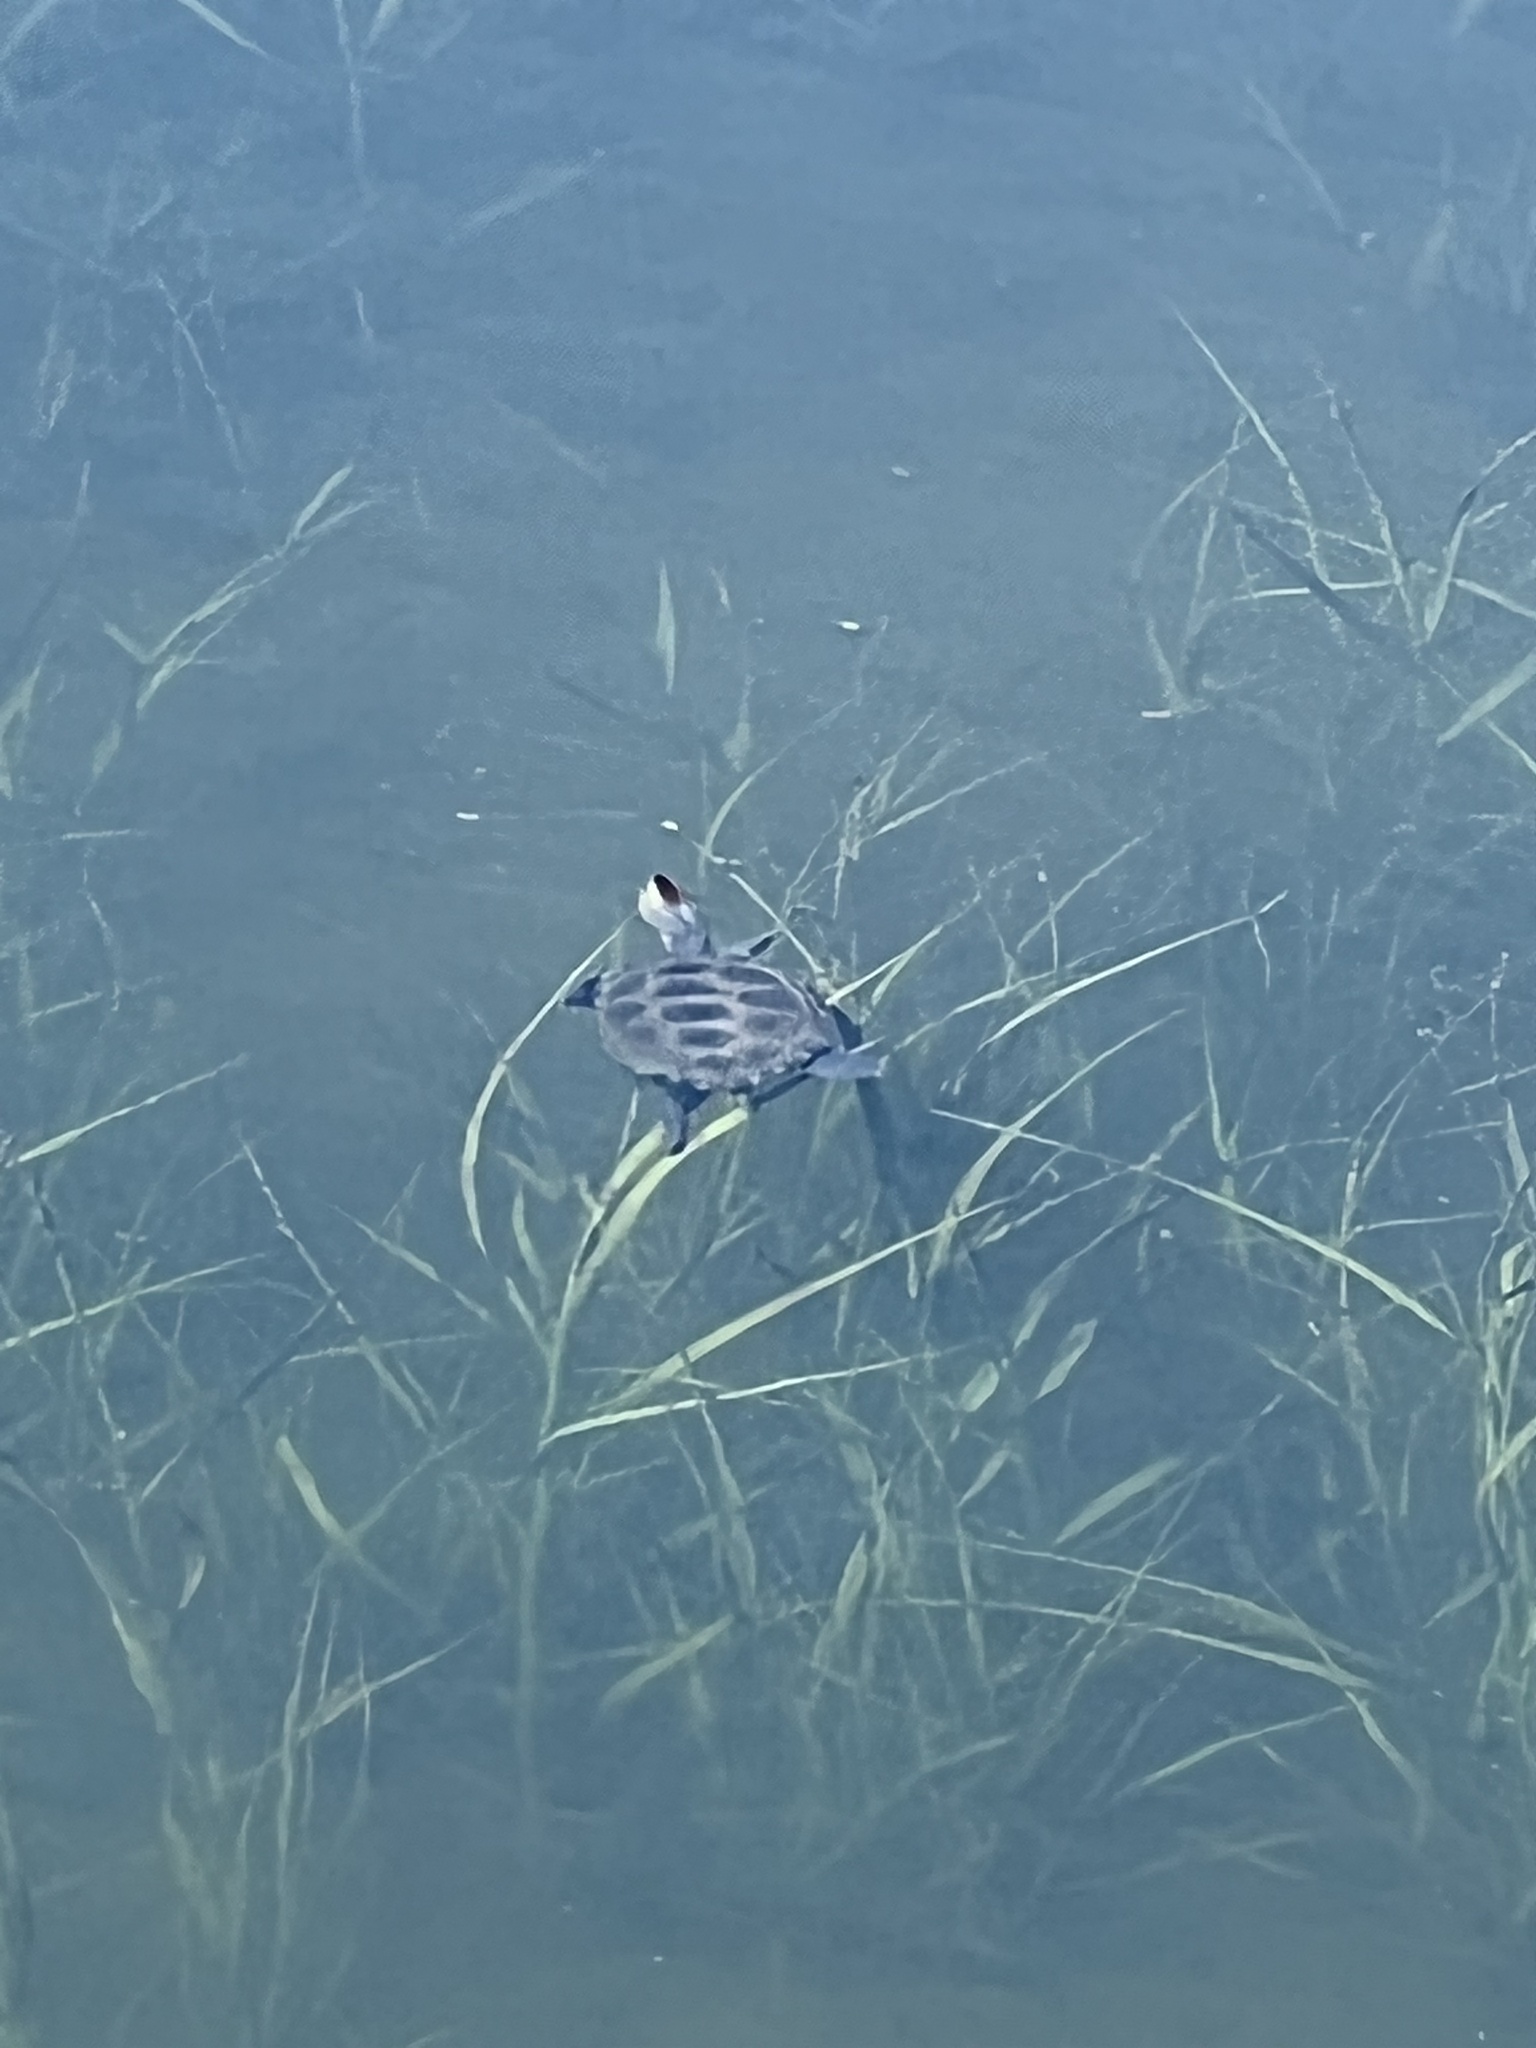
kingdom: Animalia
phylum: Chordata
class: Testudines
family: Emydidae
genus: Malaclemys
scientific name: Malaclemys terrapin
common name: Diamondback terrapin
